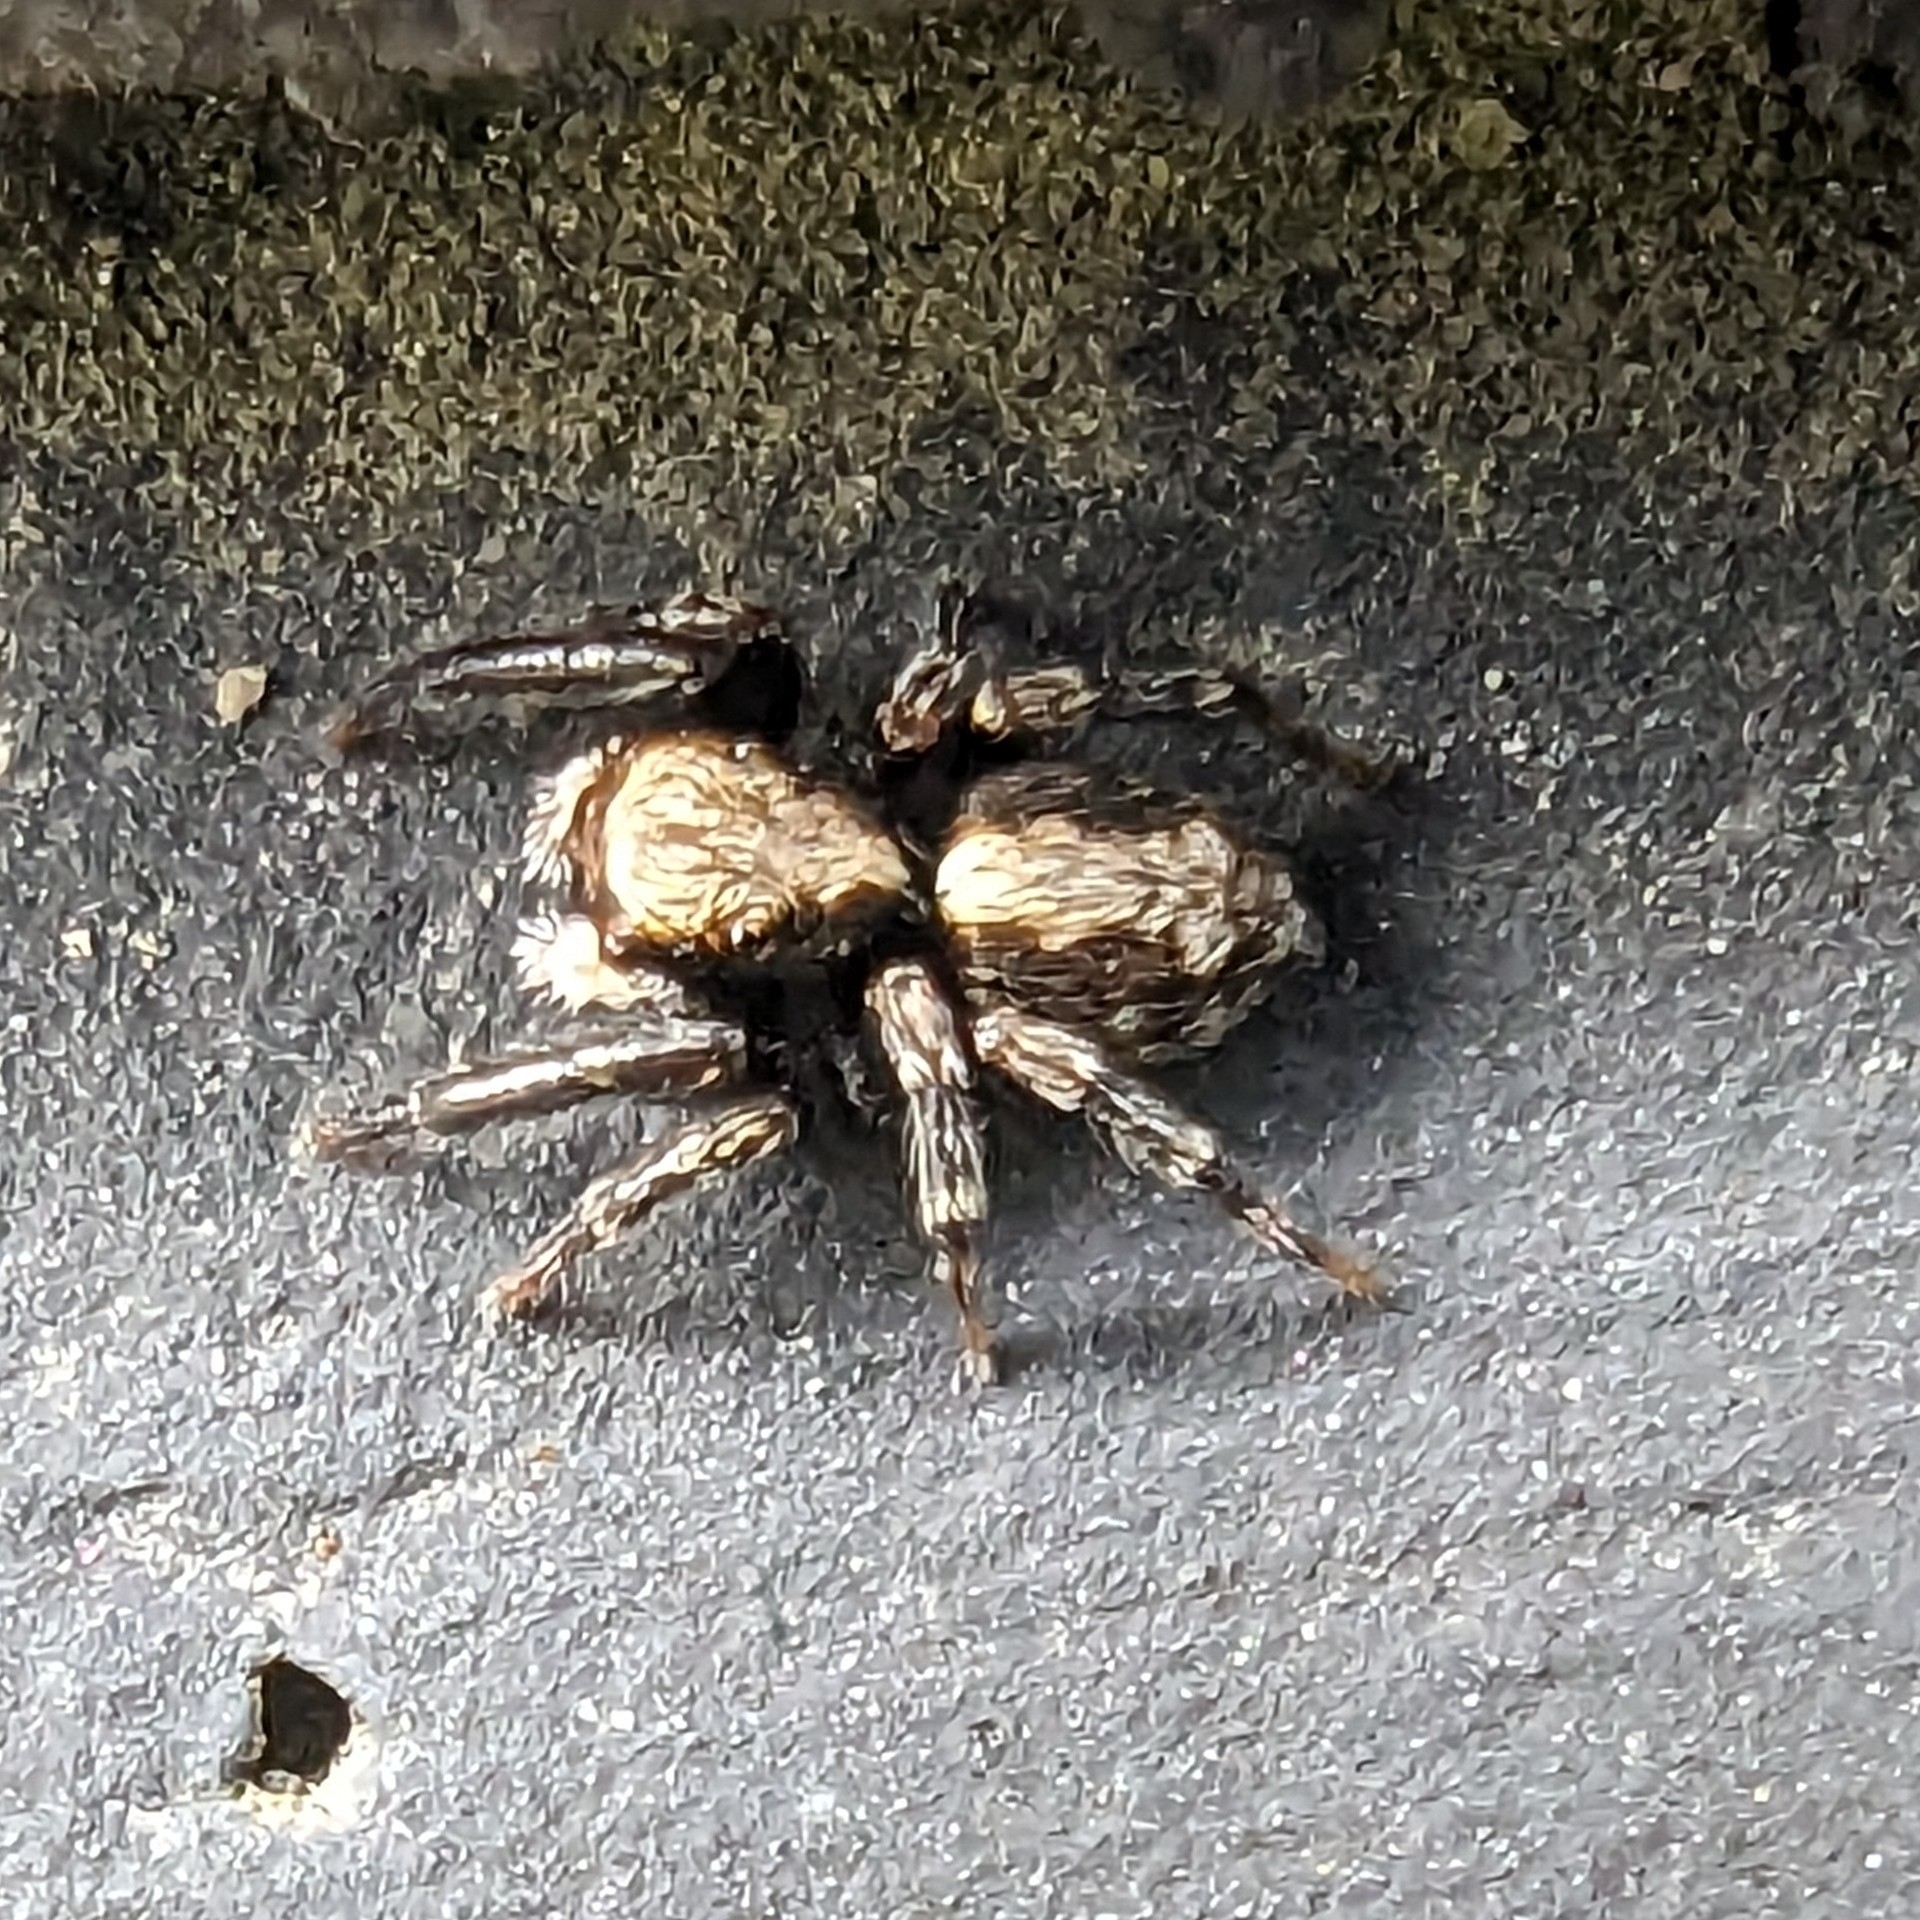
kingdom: Animalia
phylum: Arthropoda
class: Arachnida
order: Araneae
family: Salticidae
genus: Pseudeuophrys
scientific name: Pseudeuophrys lanigera
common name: Jumping spider
